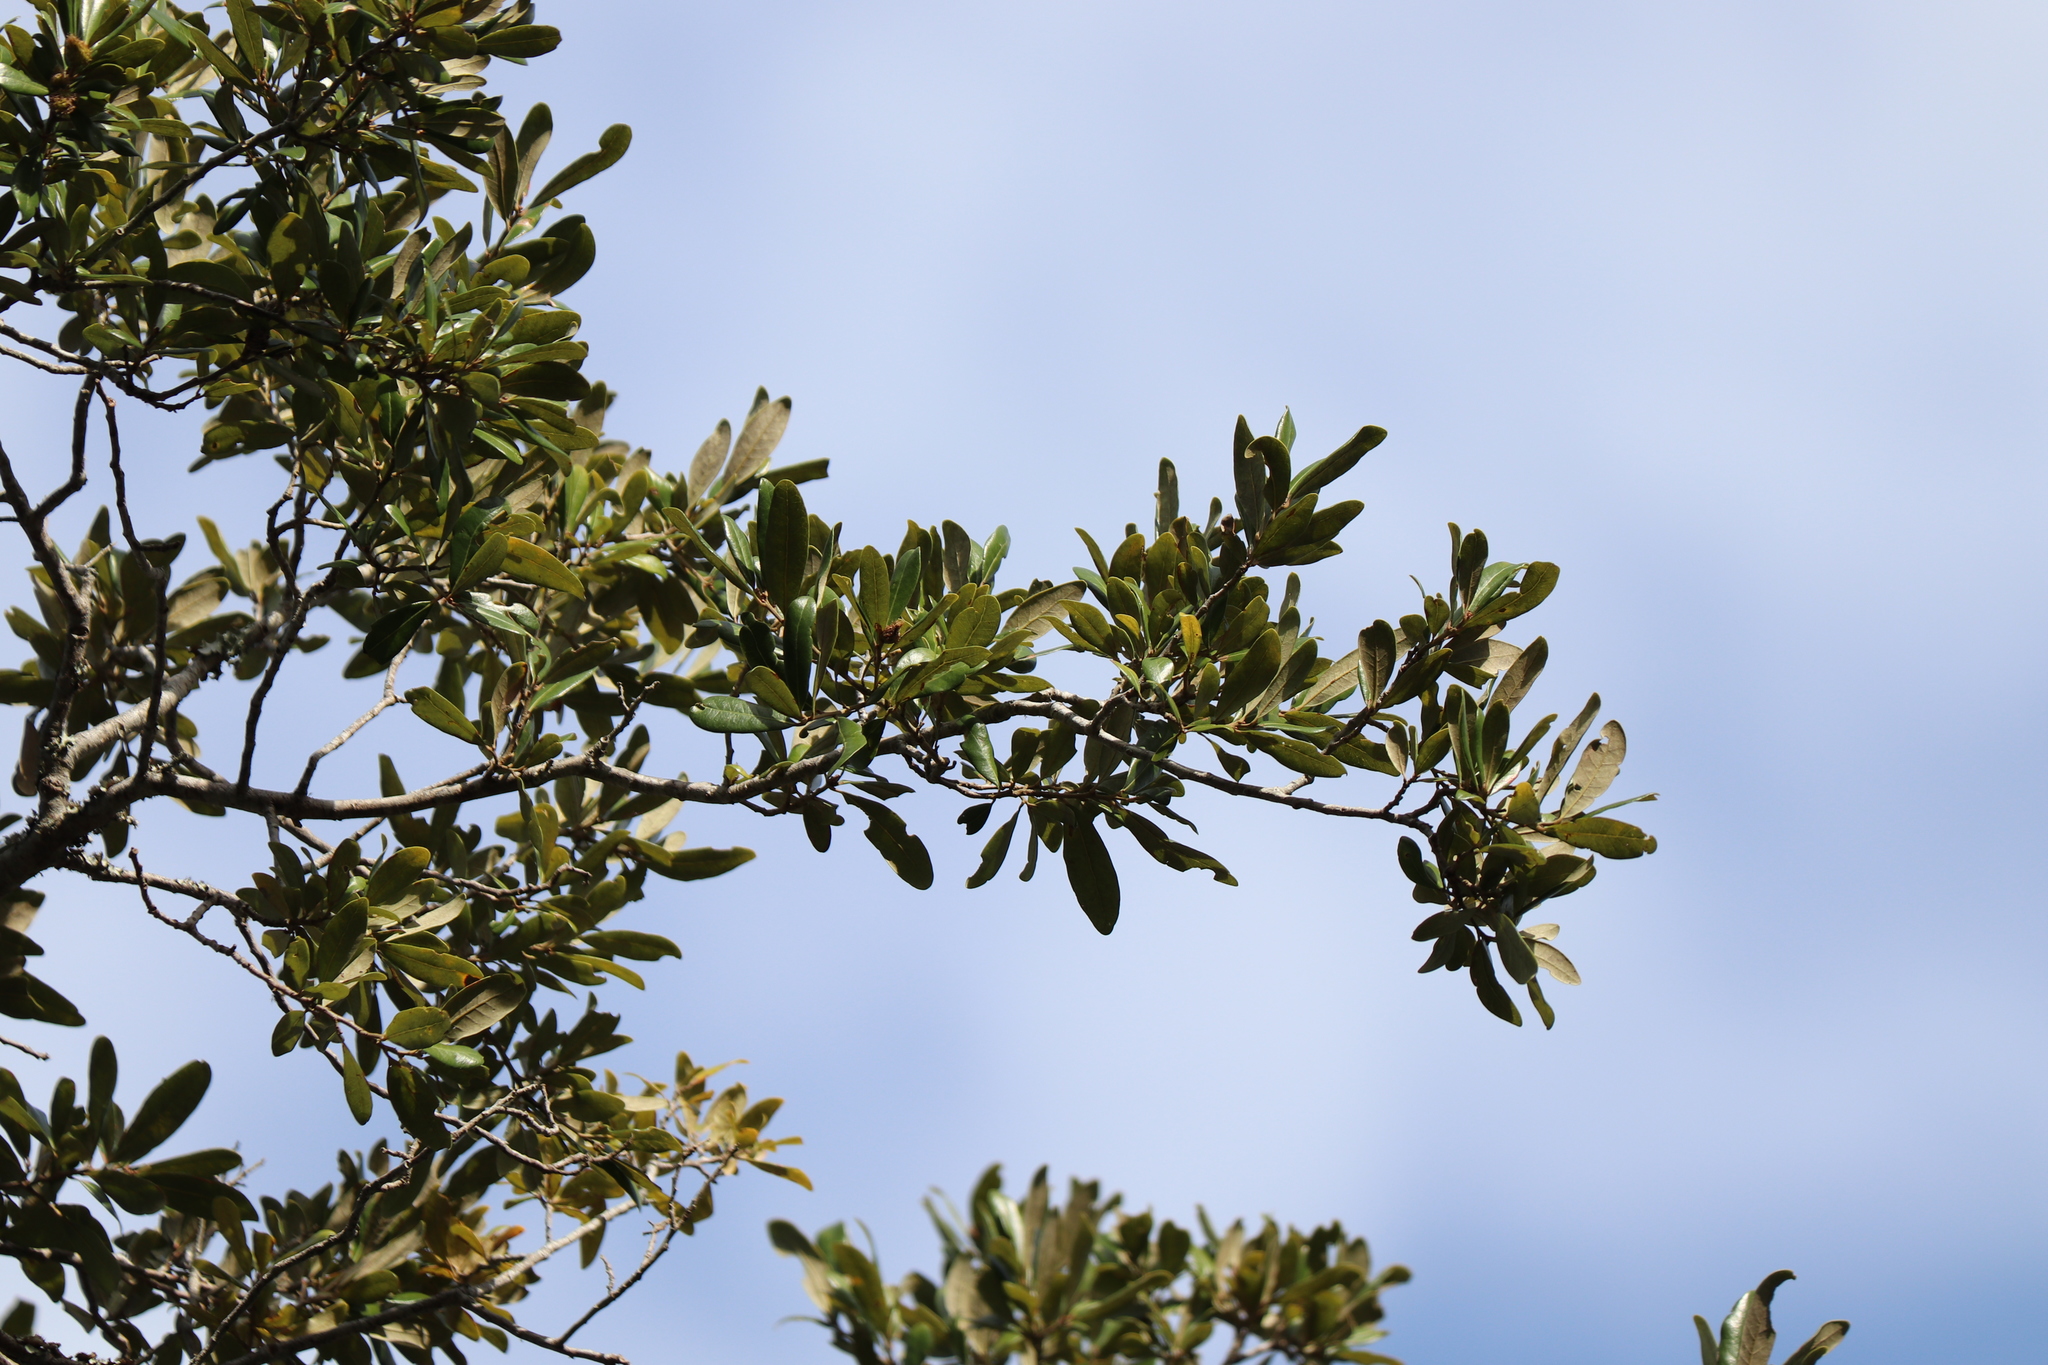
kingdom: Plantae
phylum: Tracheophyta
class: Magnoliopsida
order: Fagales
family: Fagaceae
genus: Quercus
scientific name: Quercus virginiana
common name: Southern live oak
